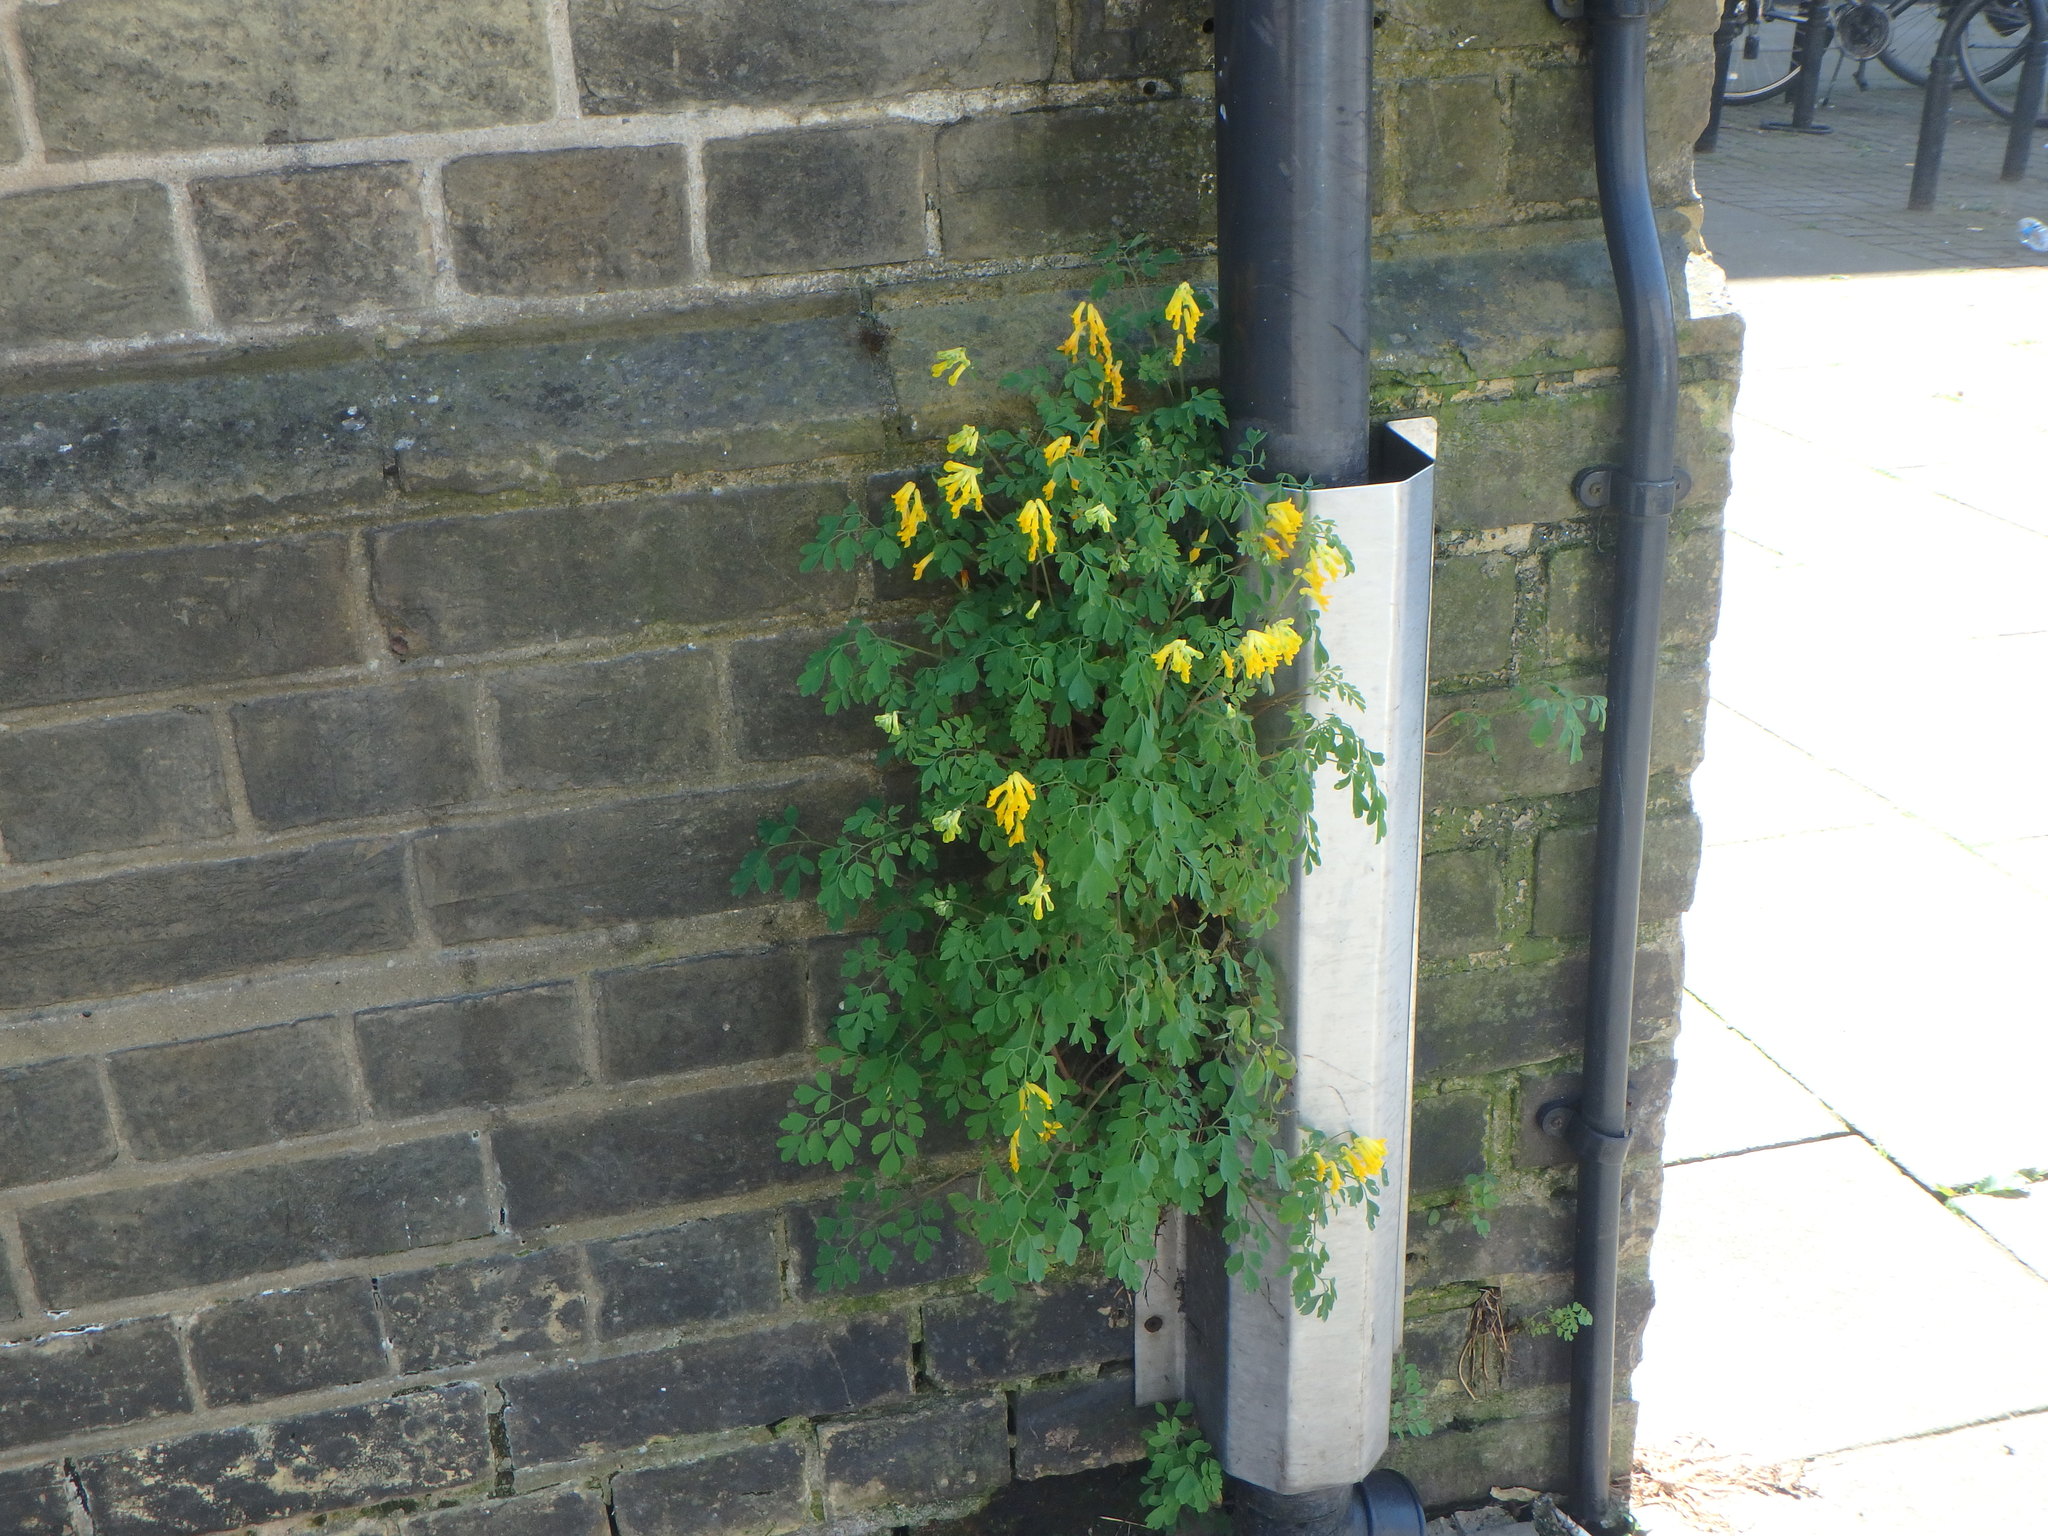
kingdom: Plantae
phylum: Tracheophyta
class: Magnoliopsida
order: Ranunculales
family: Papaveraceae
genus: Pseudofumaria
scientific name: Pseudofumaria lutea
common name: Yellow corydalis
